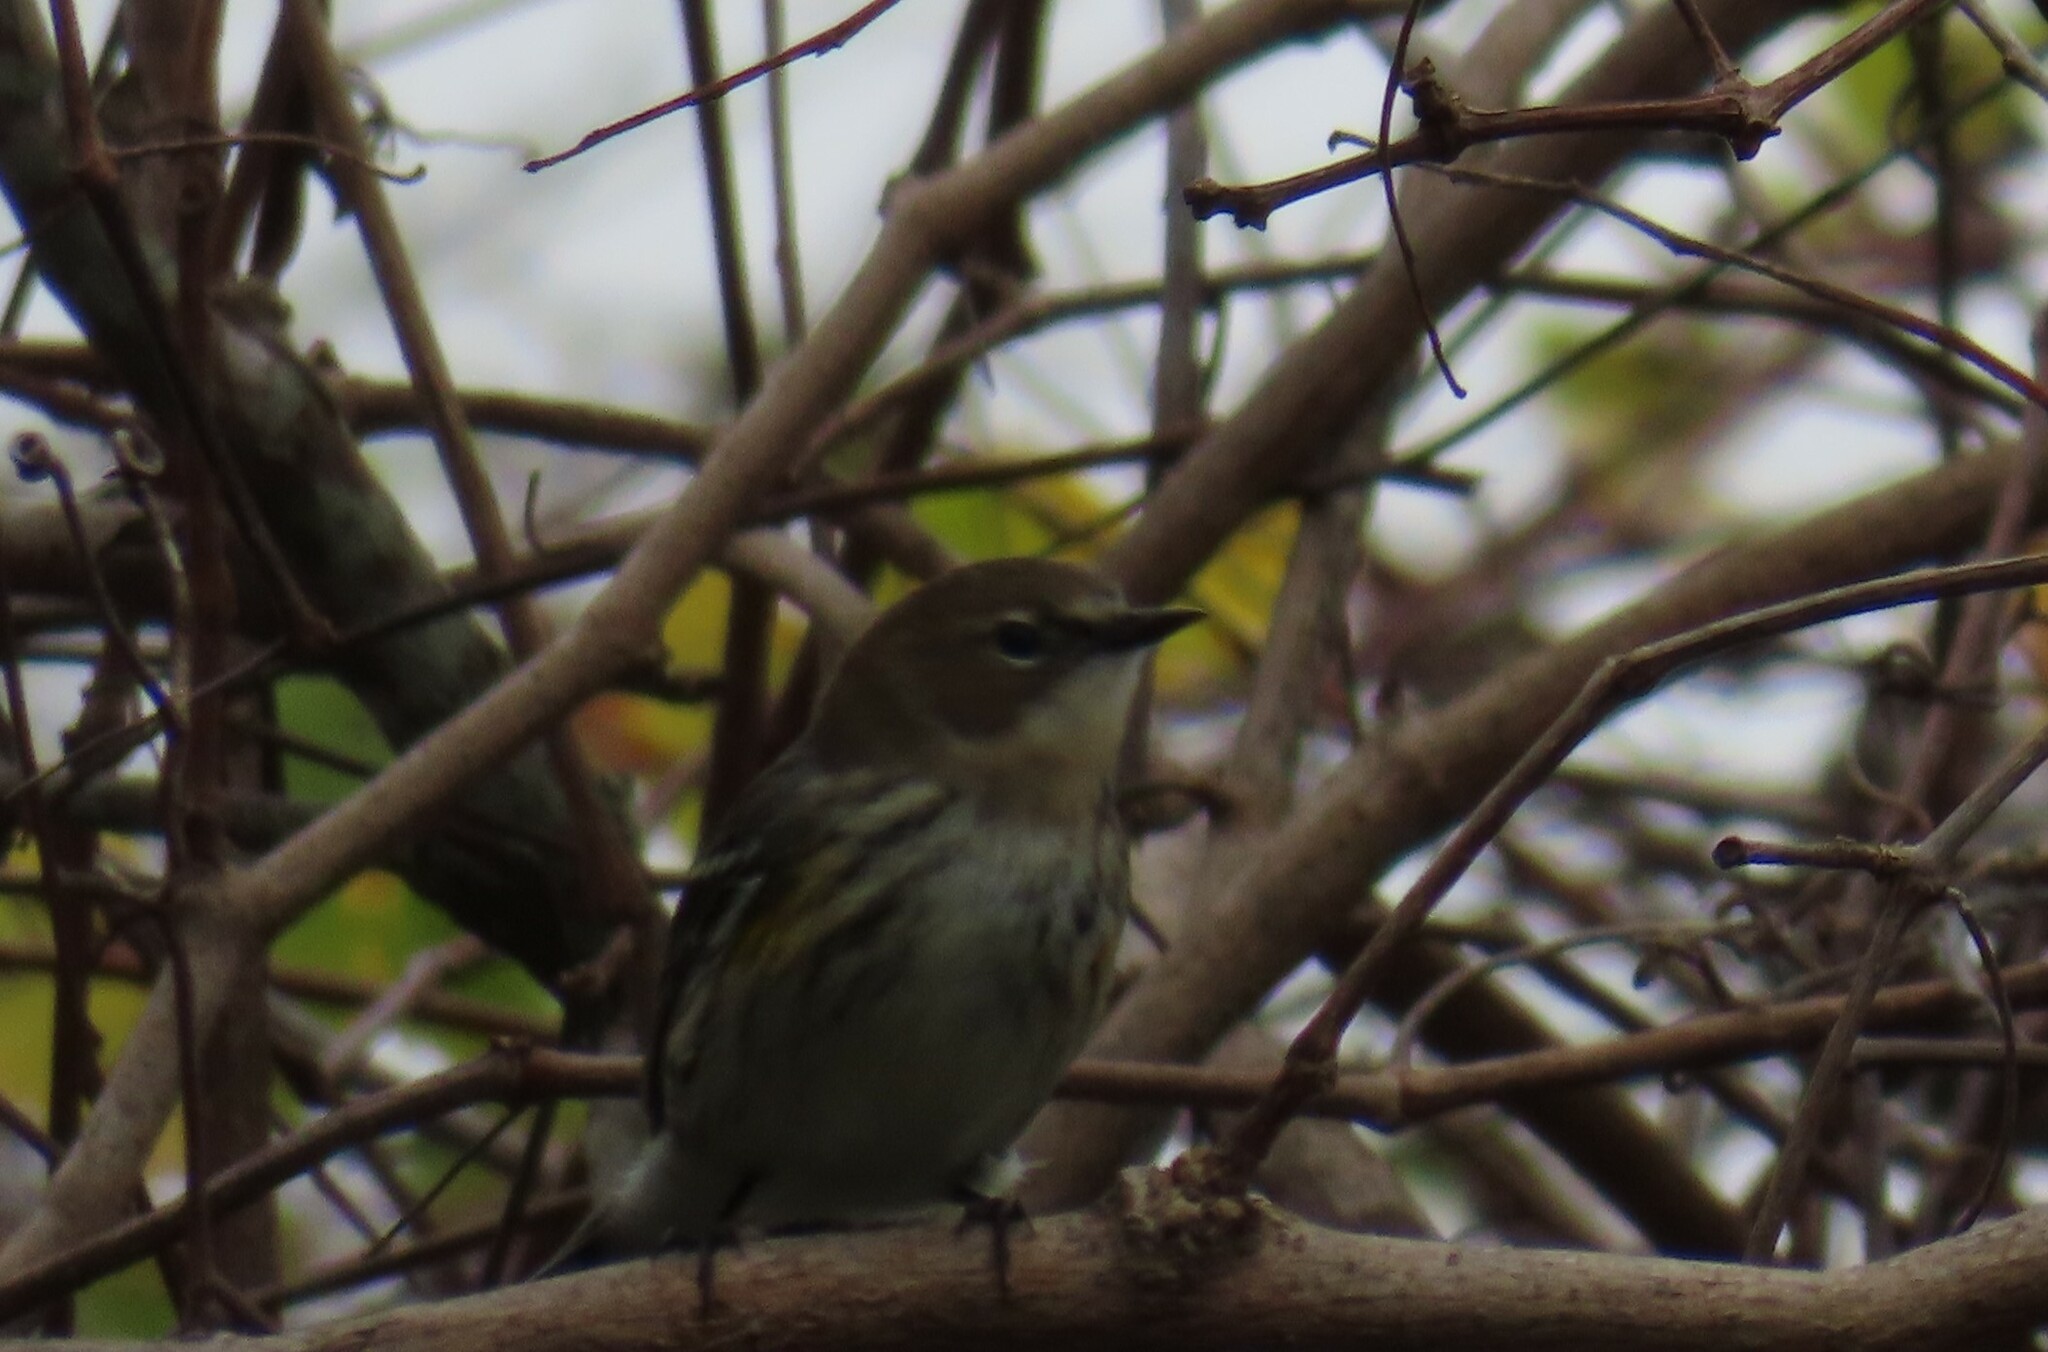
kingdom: Animalia
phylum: Chordata
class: Aves
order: Passeriformes
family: Parulidae
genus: Setophaga
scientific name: Setophaga coronata
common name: Myrtle warbler
